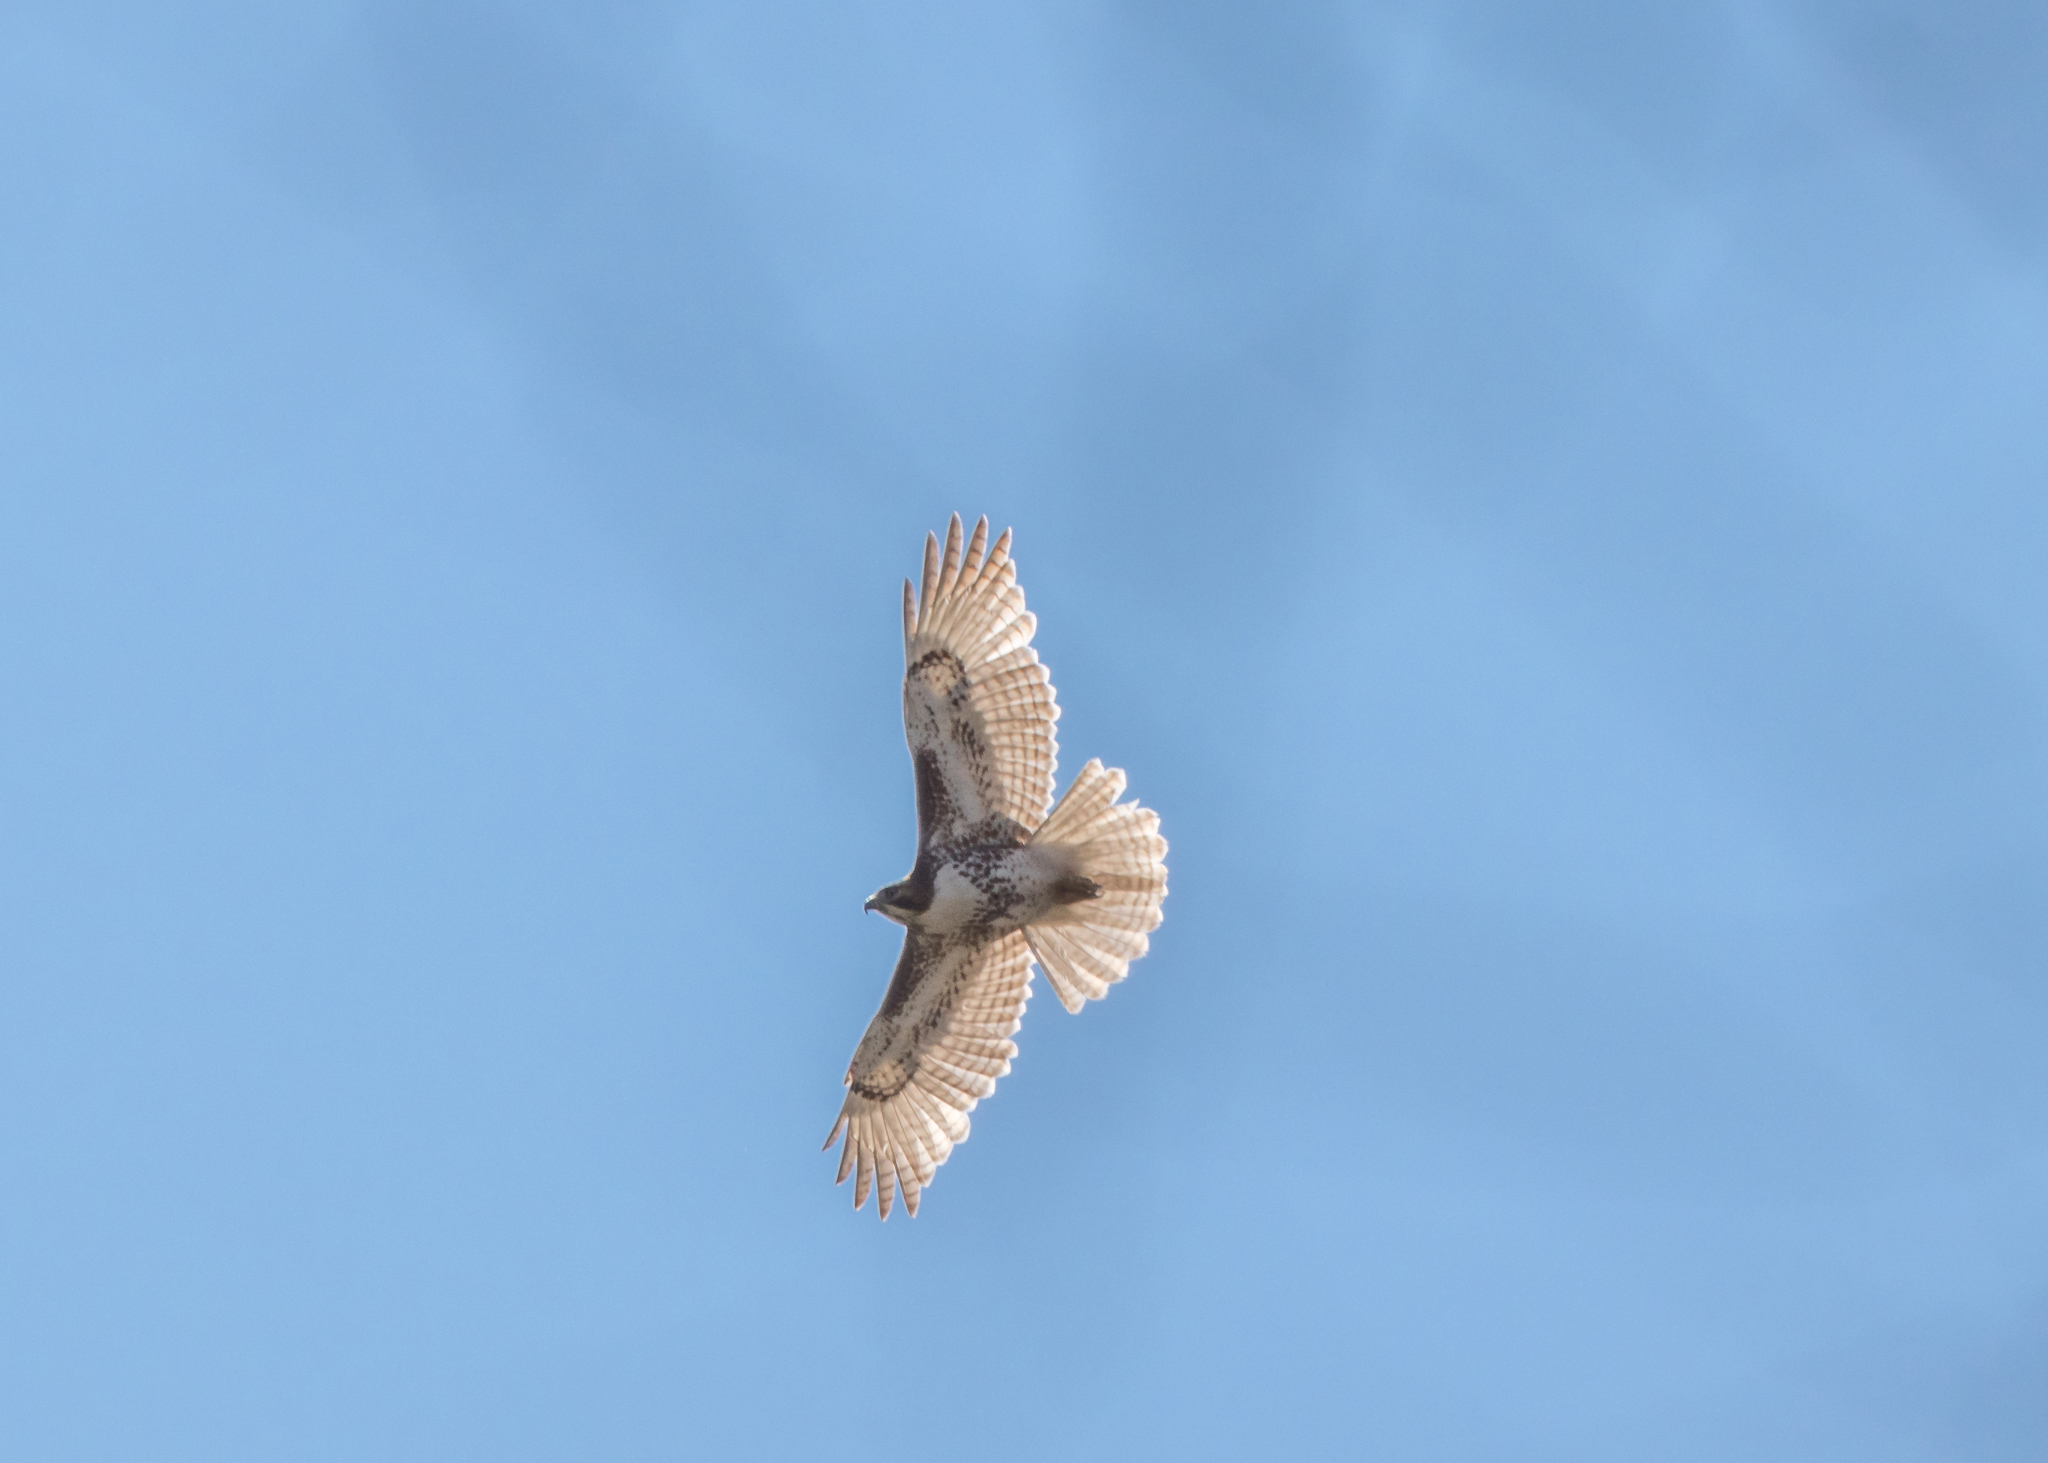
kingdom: Animalia
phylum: Chordata
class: Aves
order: Accipitriformes
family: Accipitridae
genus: Buteo
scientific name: Buteo jamaicensis
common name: Red-tailed hawk
